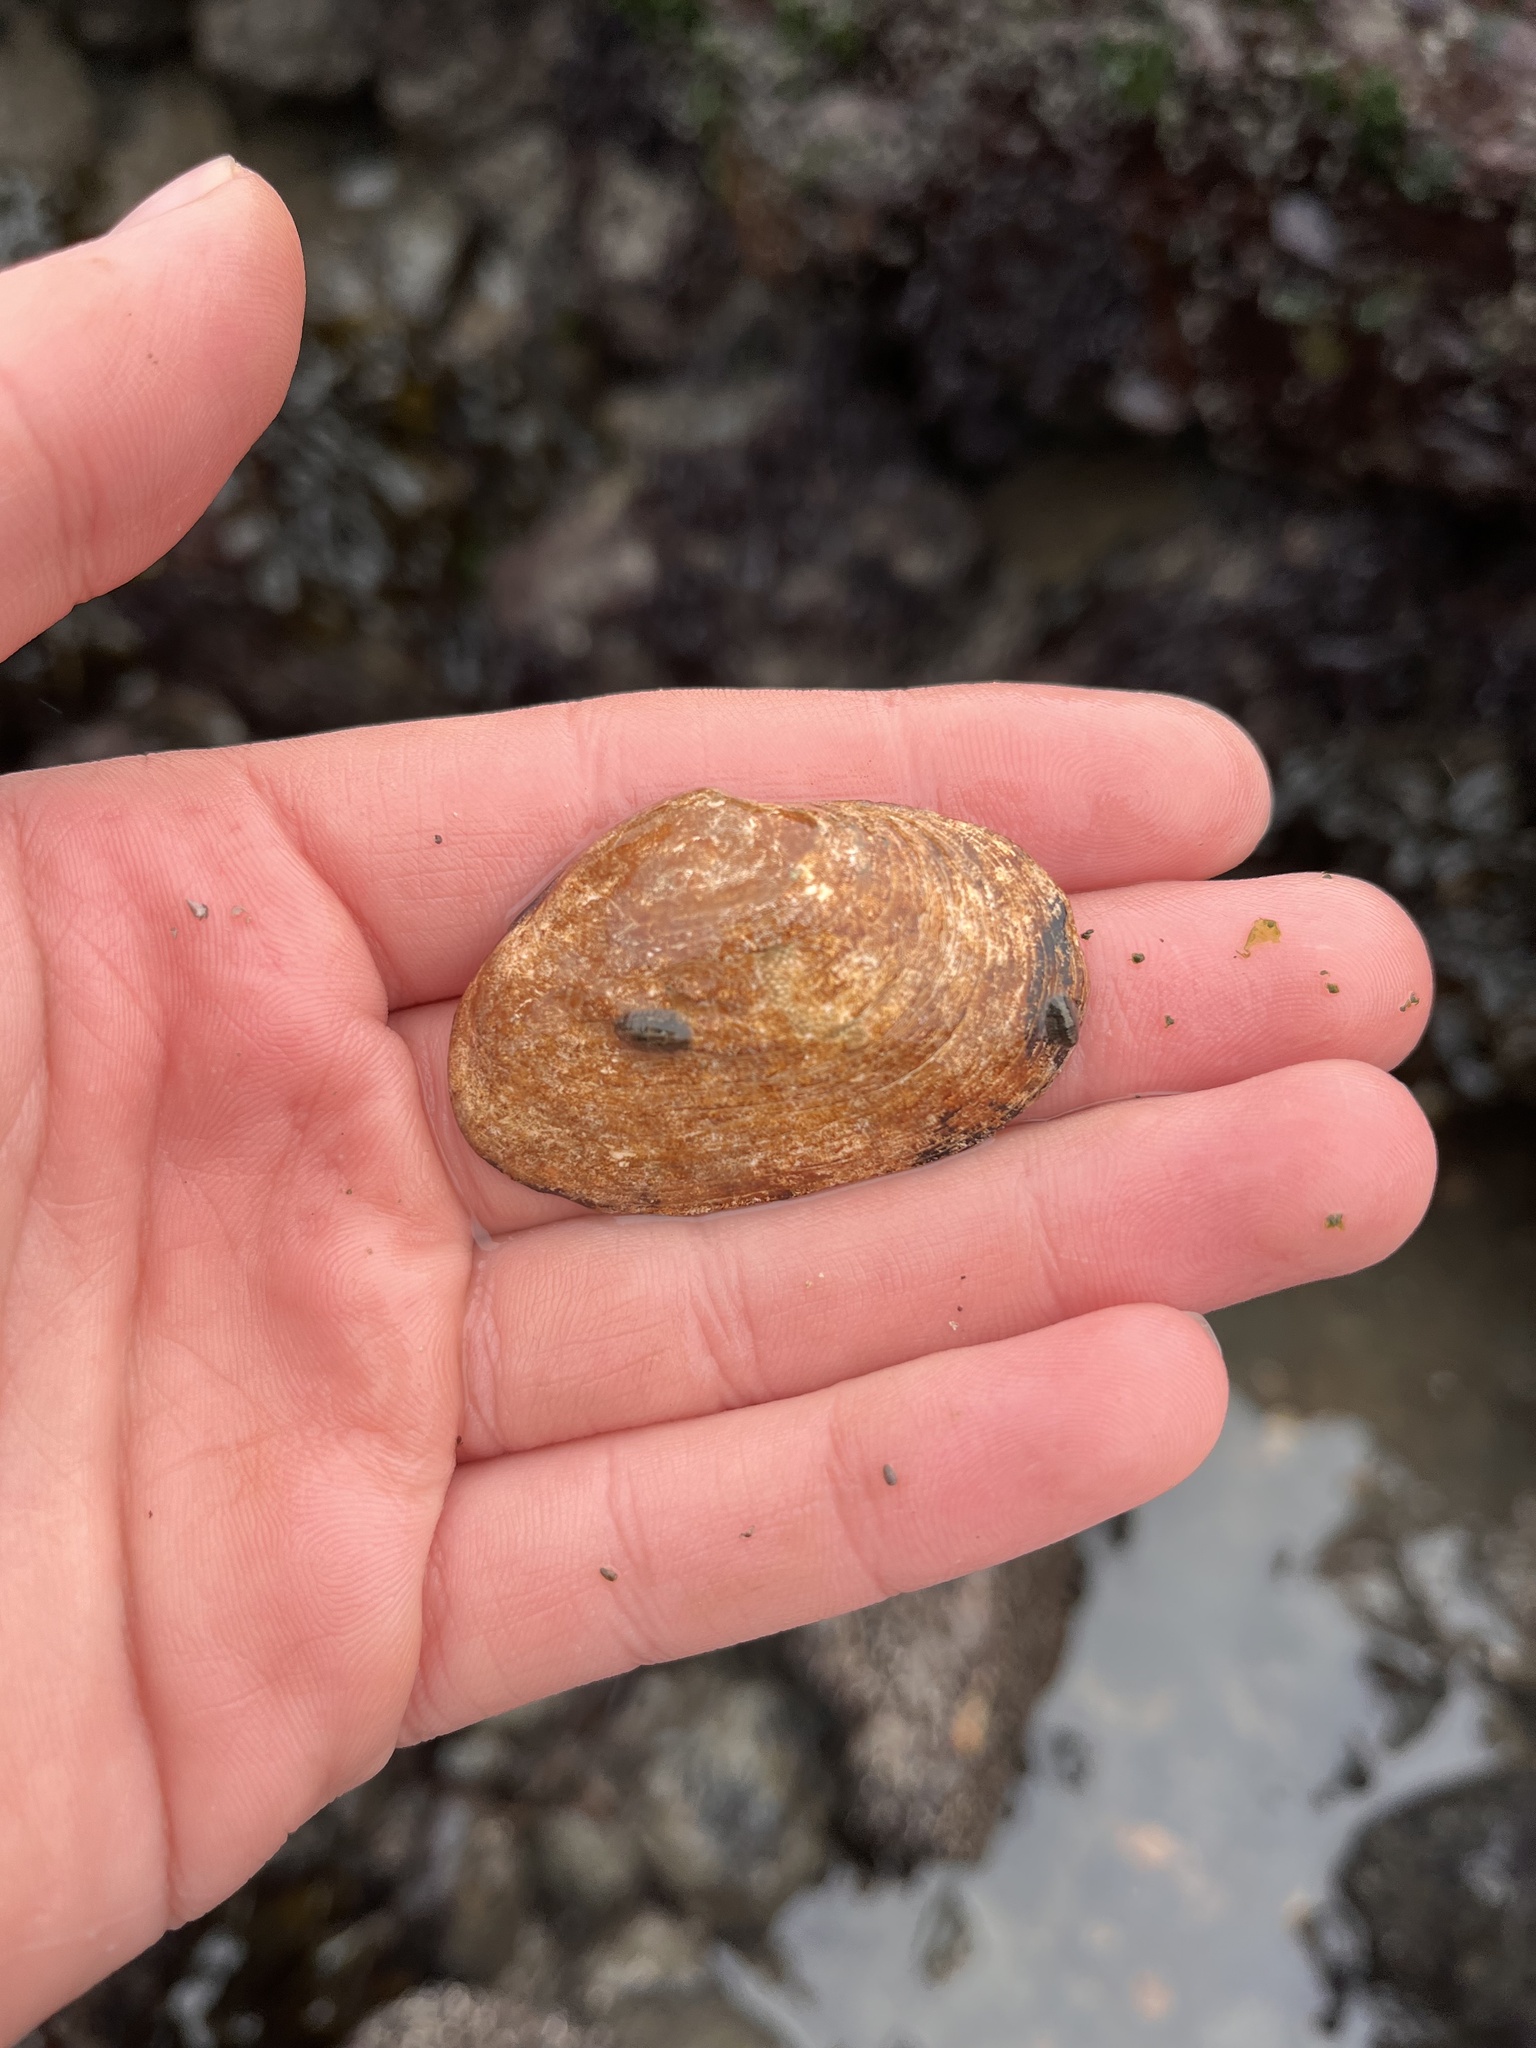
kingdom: Animalia
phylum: Mollusca
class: Bivalvia
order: Myida
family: Myidae
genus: Mya
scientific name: Mya arenaria
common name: Soft-shelled clam
